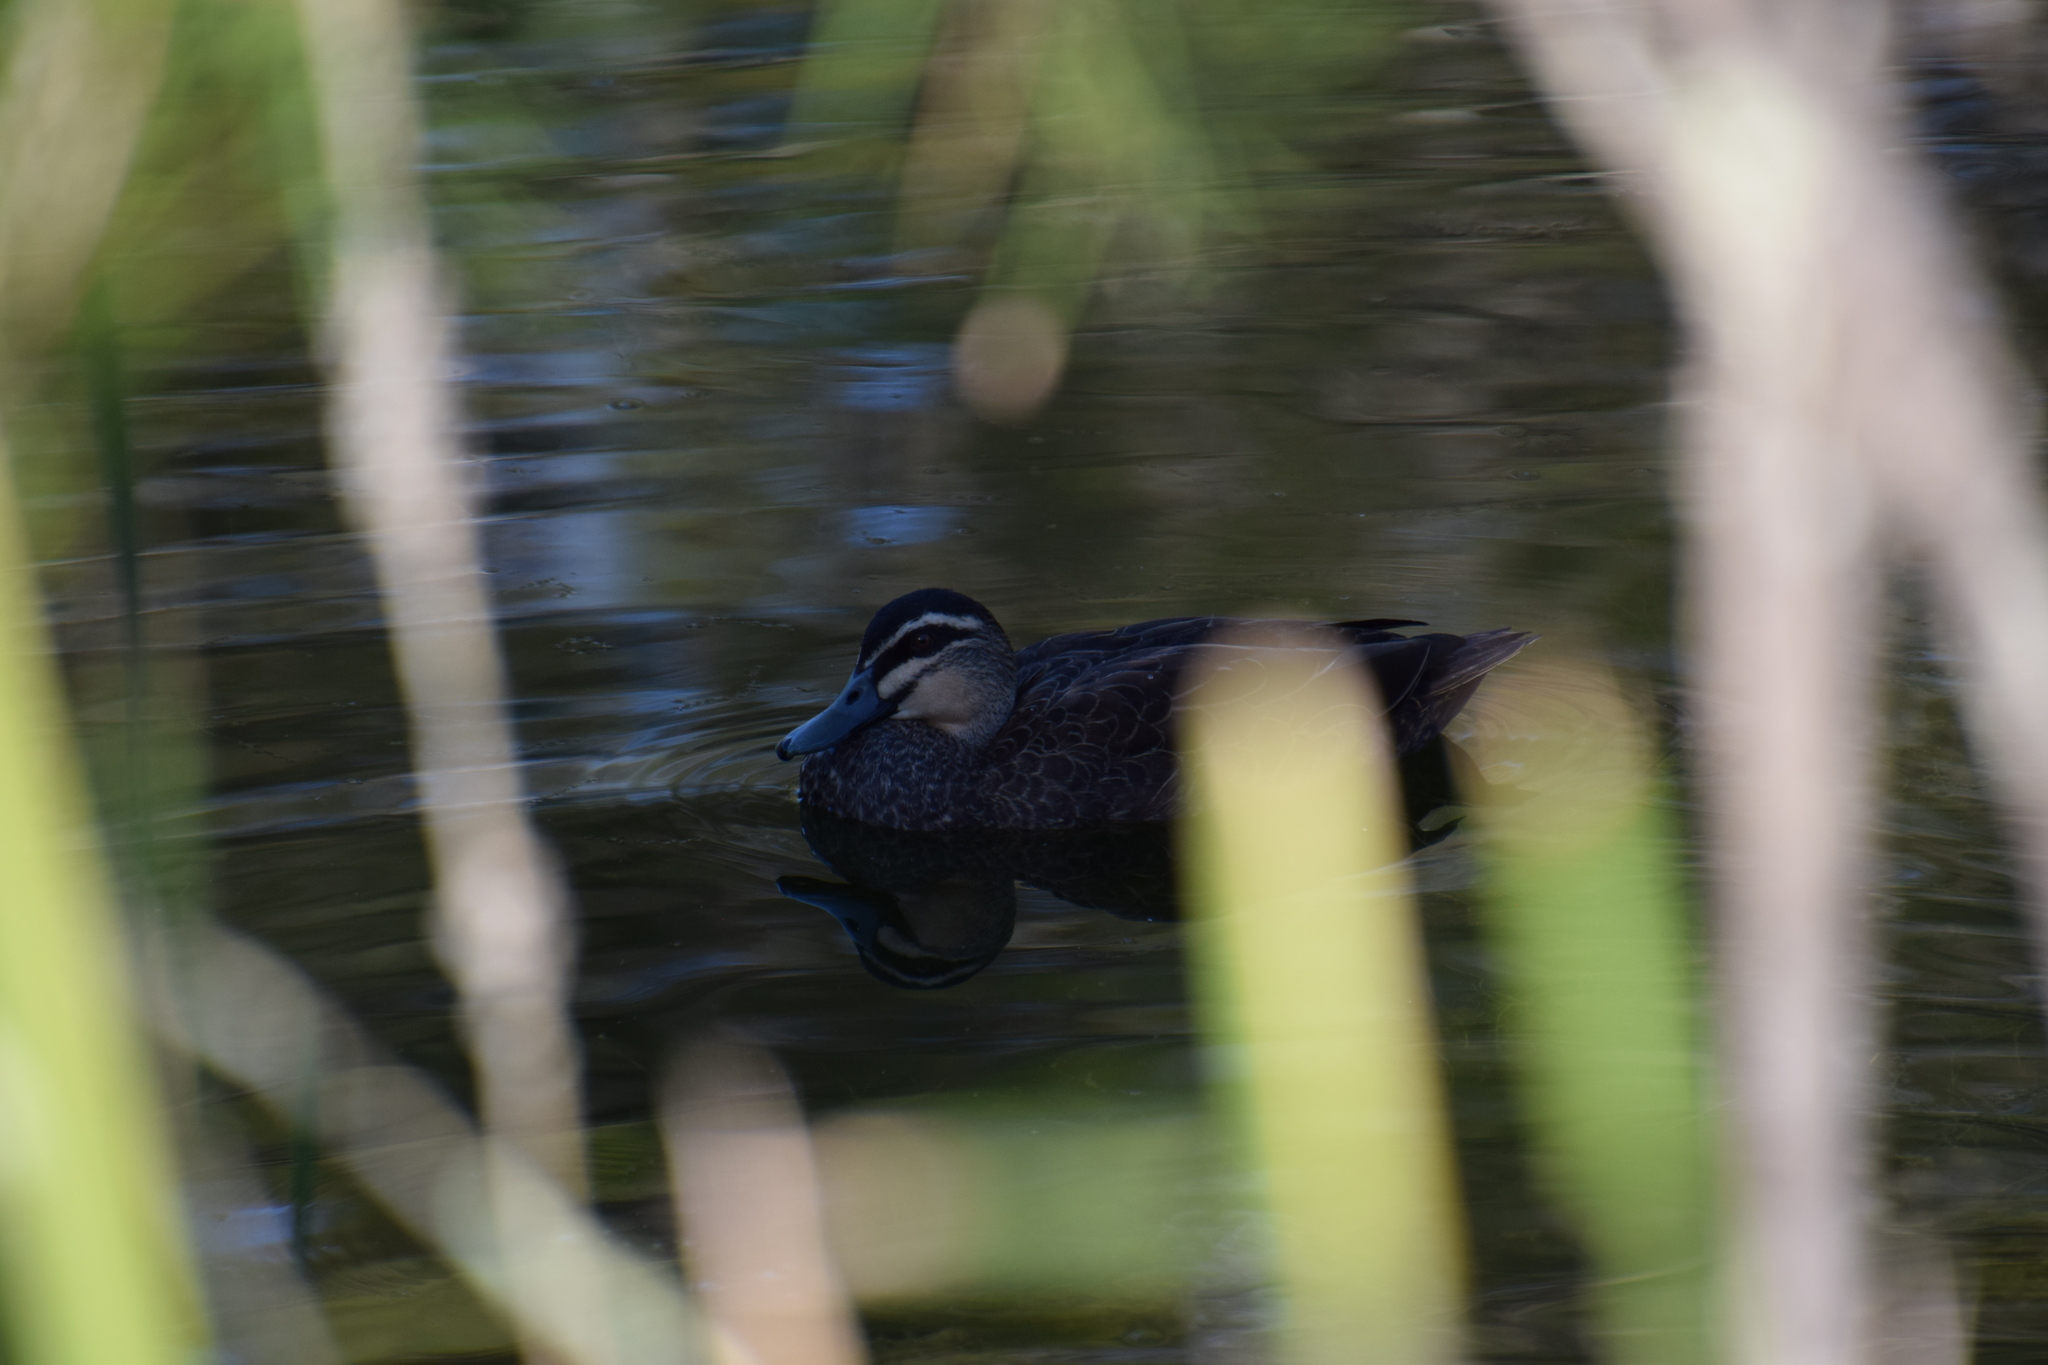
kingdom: Animalia
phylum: Chordata
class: Aves
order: Anseriformes
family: Anatidae
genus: Anas
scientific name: Anas superciliosa
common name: Pacific black duck
